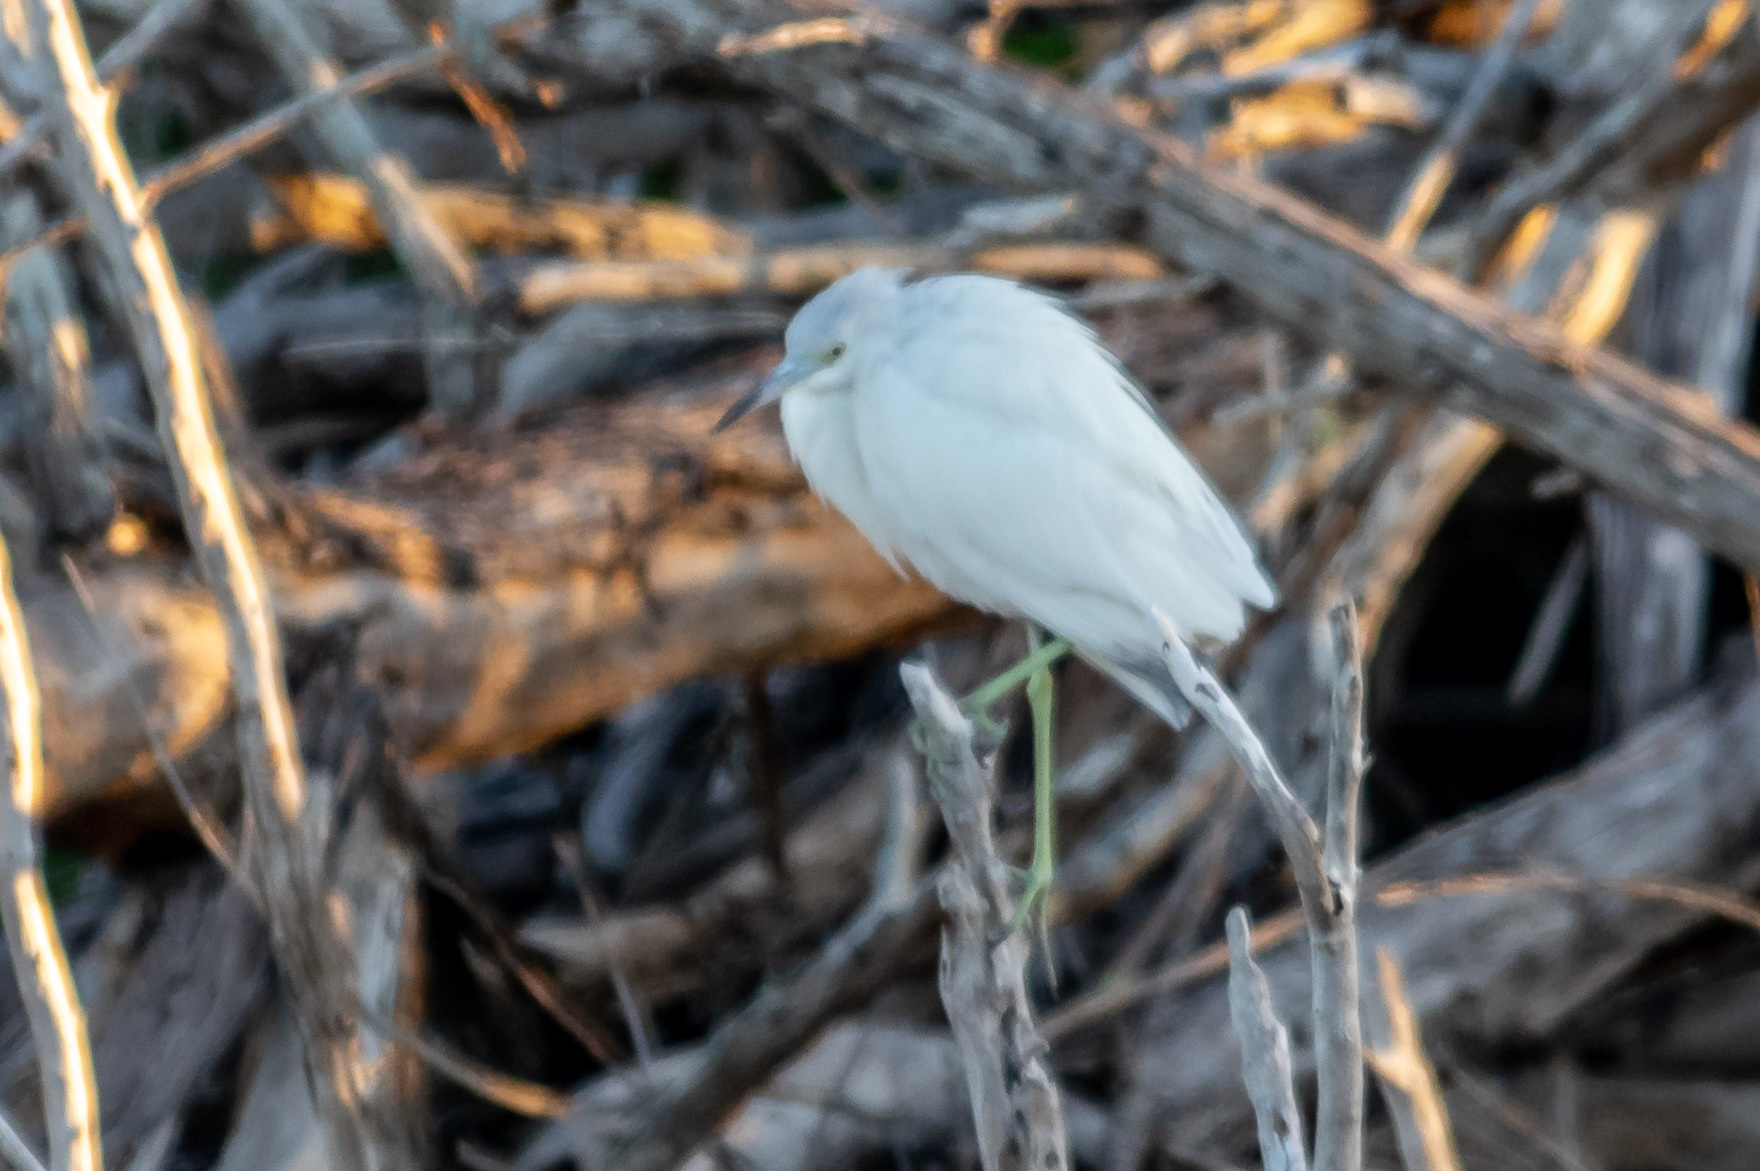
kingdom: Animalia
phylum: Chordata
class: Aves
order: Pelecaniformes
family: Ardeidae
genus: Egretta
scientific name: Egretta caerulea
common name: Little blue heron
